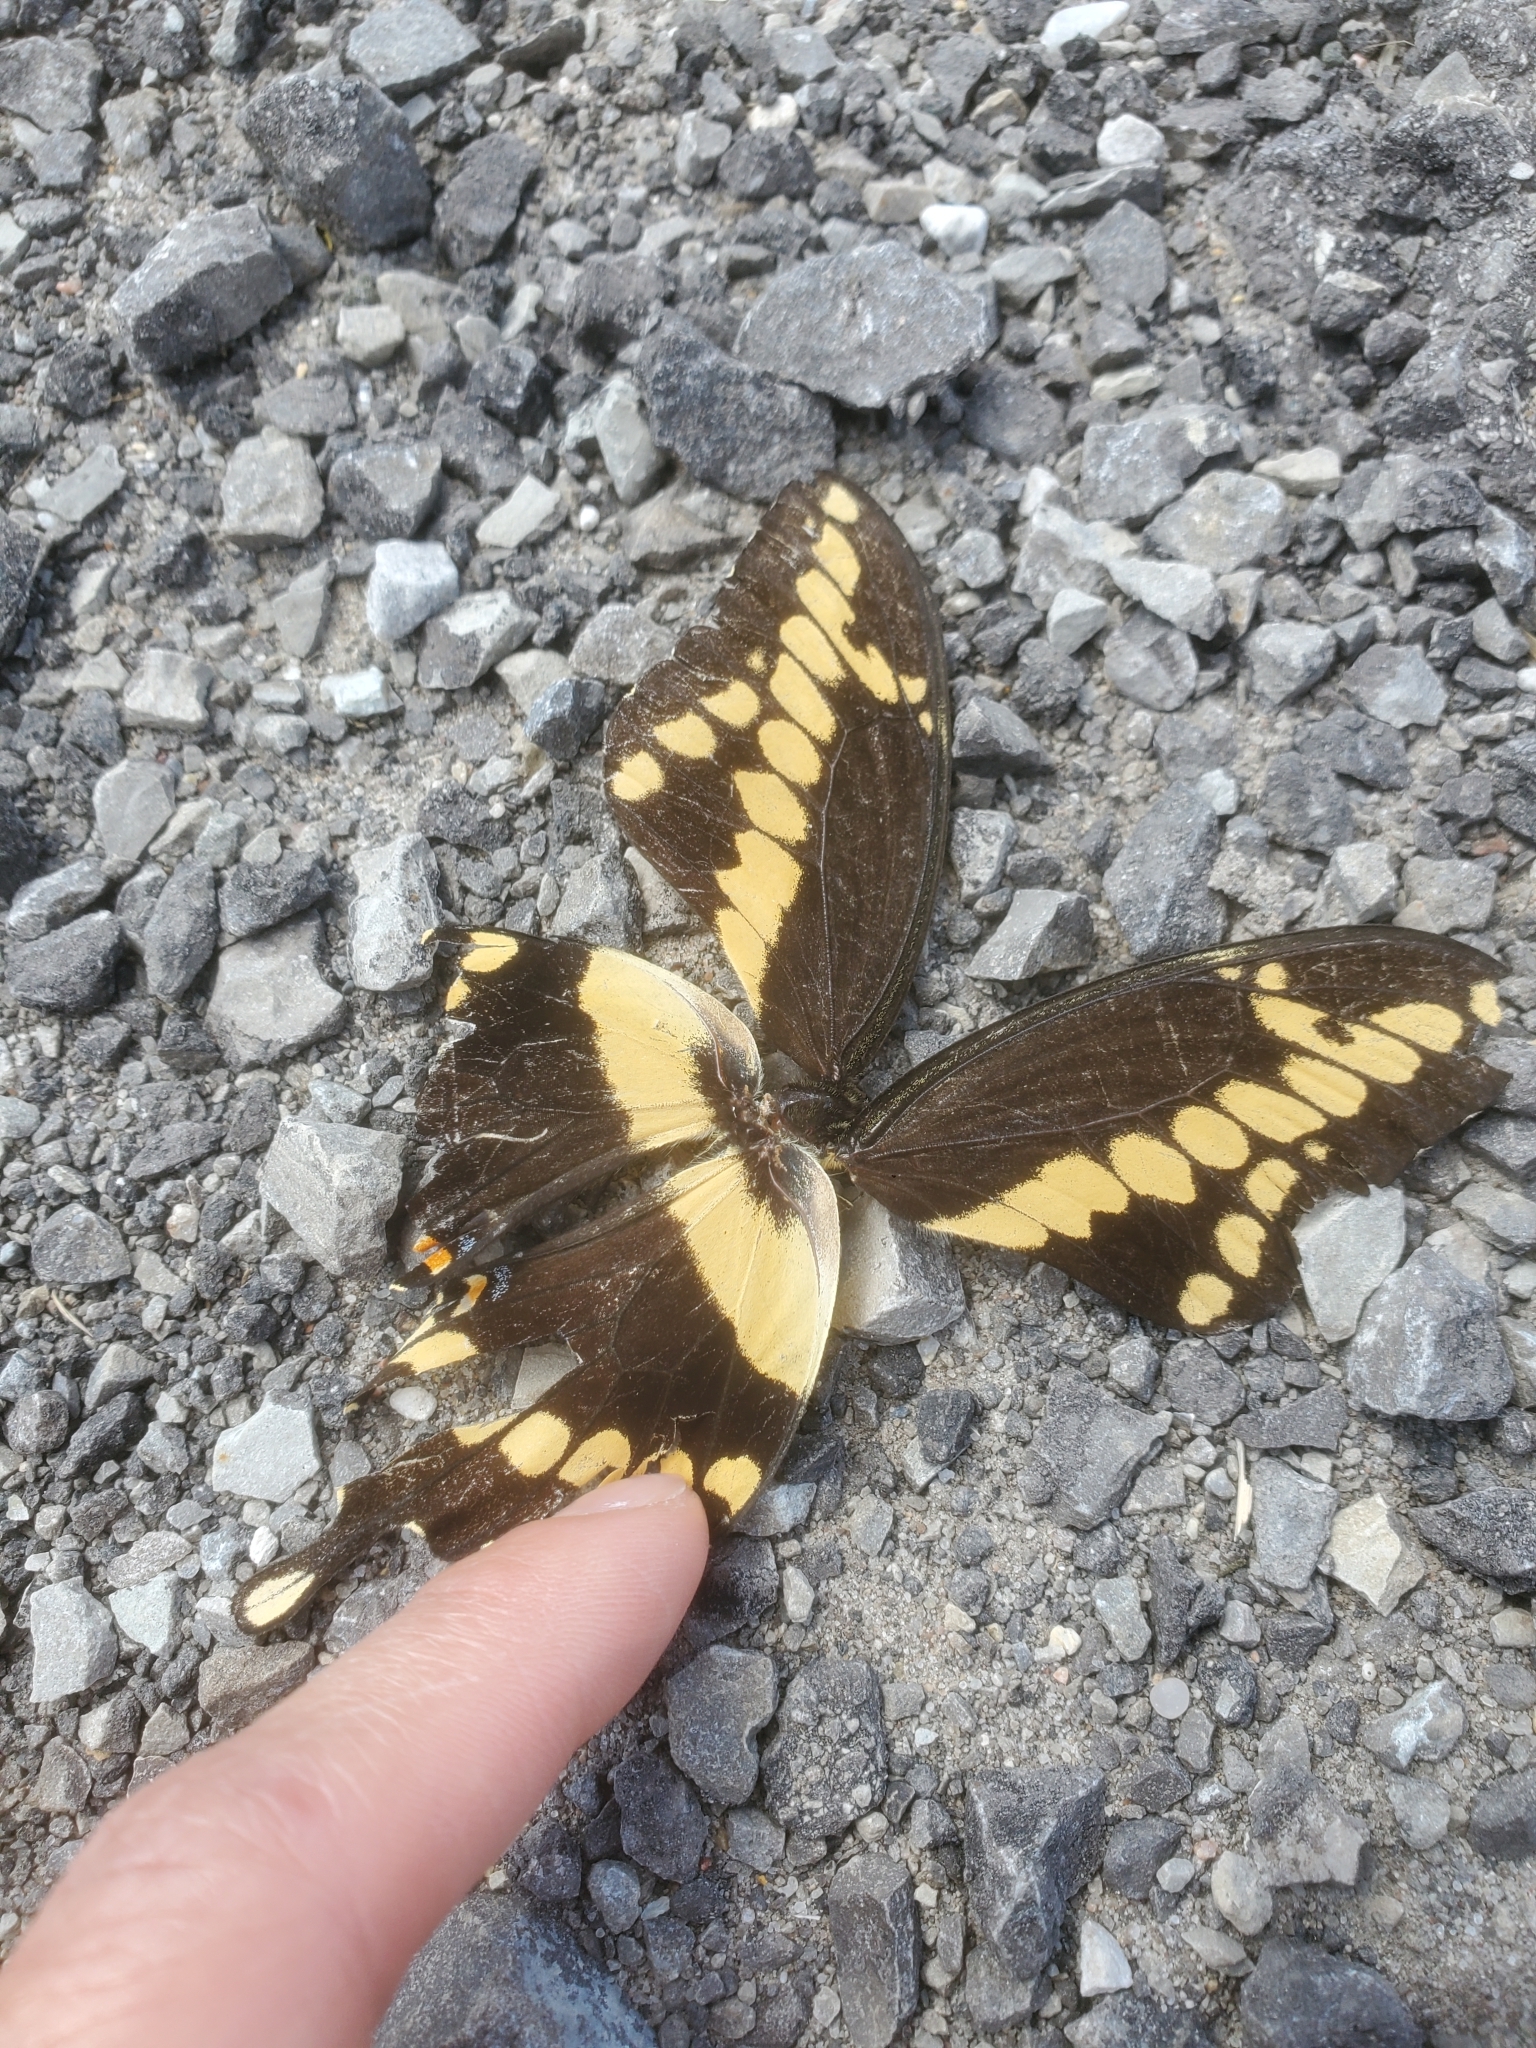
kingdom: Animalia
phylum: Arthropoda
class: Insecta
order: Lepidoptera
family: Papilionidae
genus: Papilio
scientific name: Papilio cresphontes
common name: Giant swallowtail
